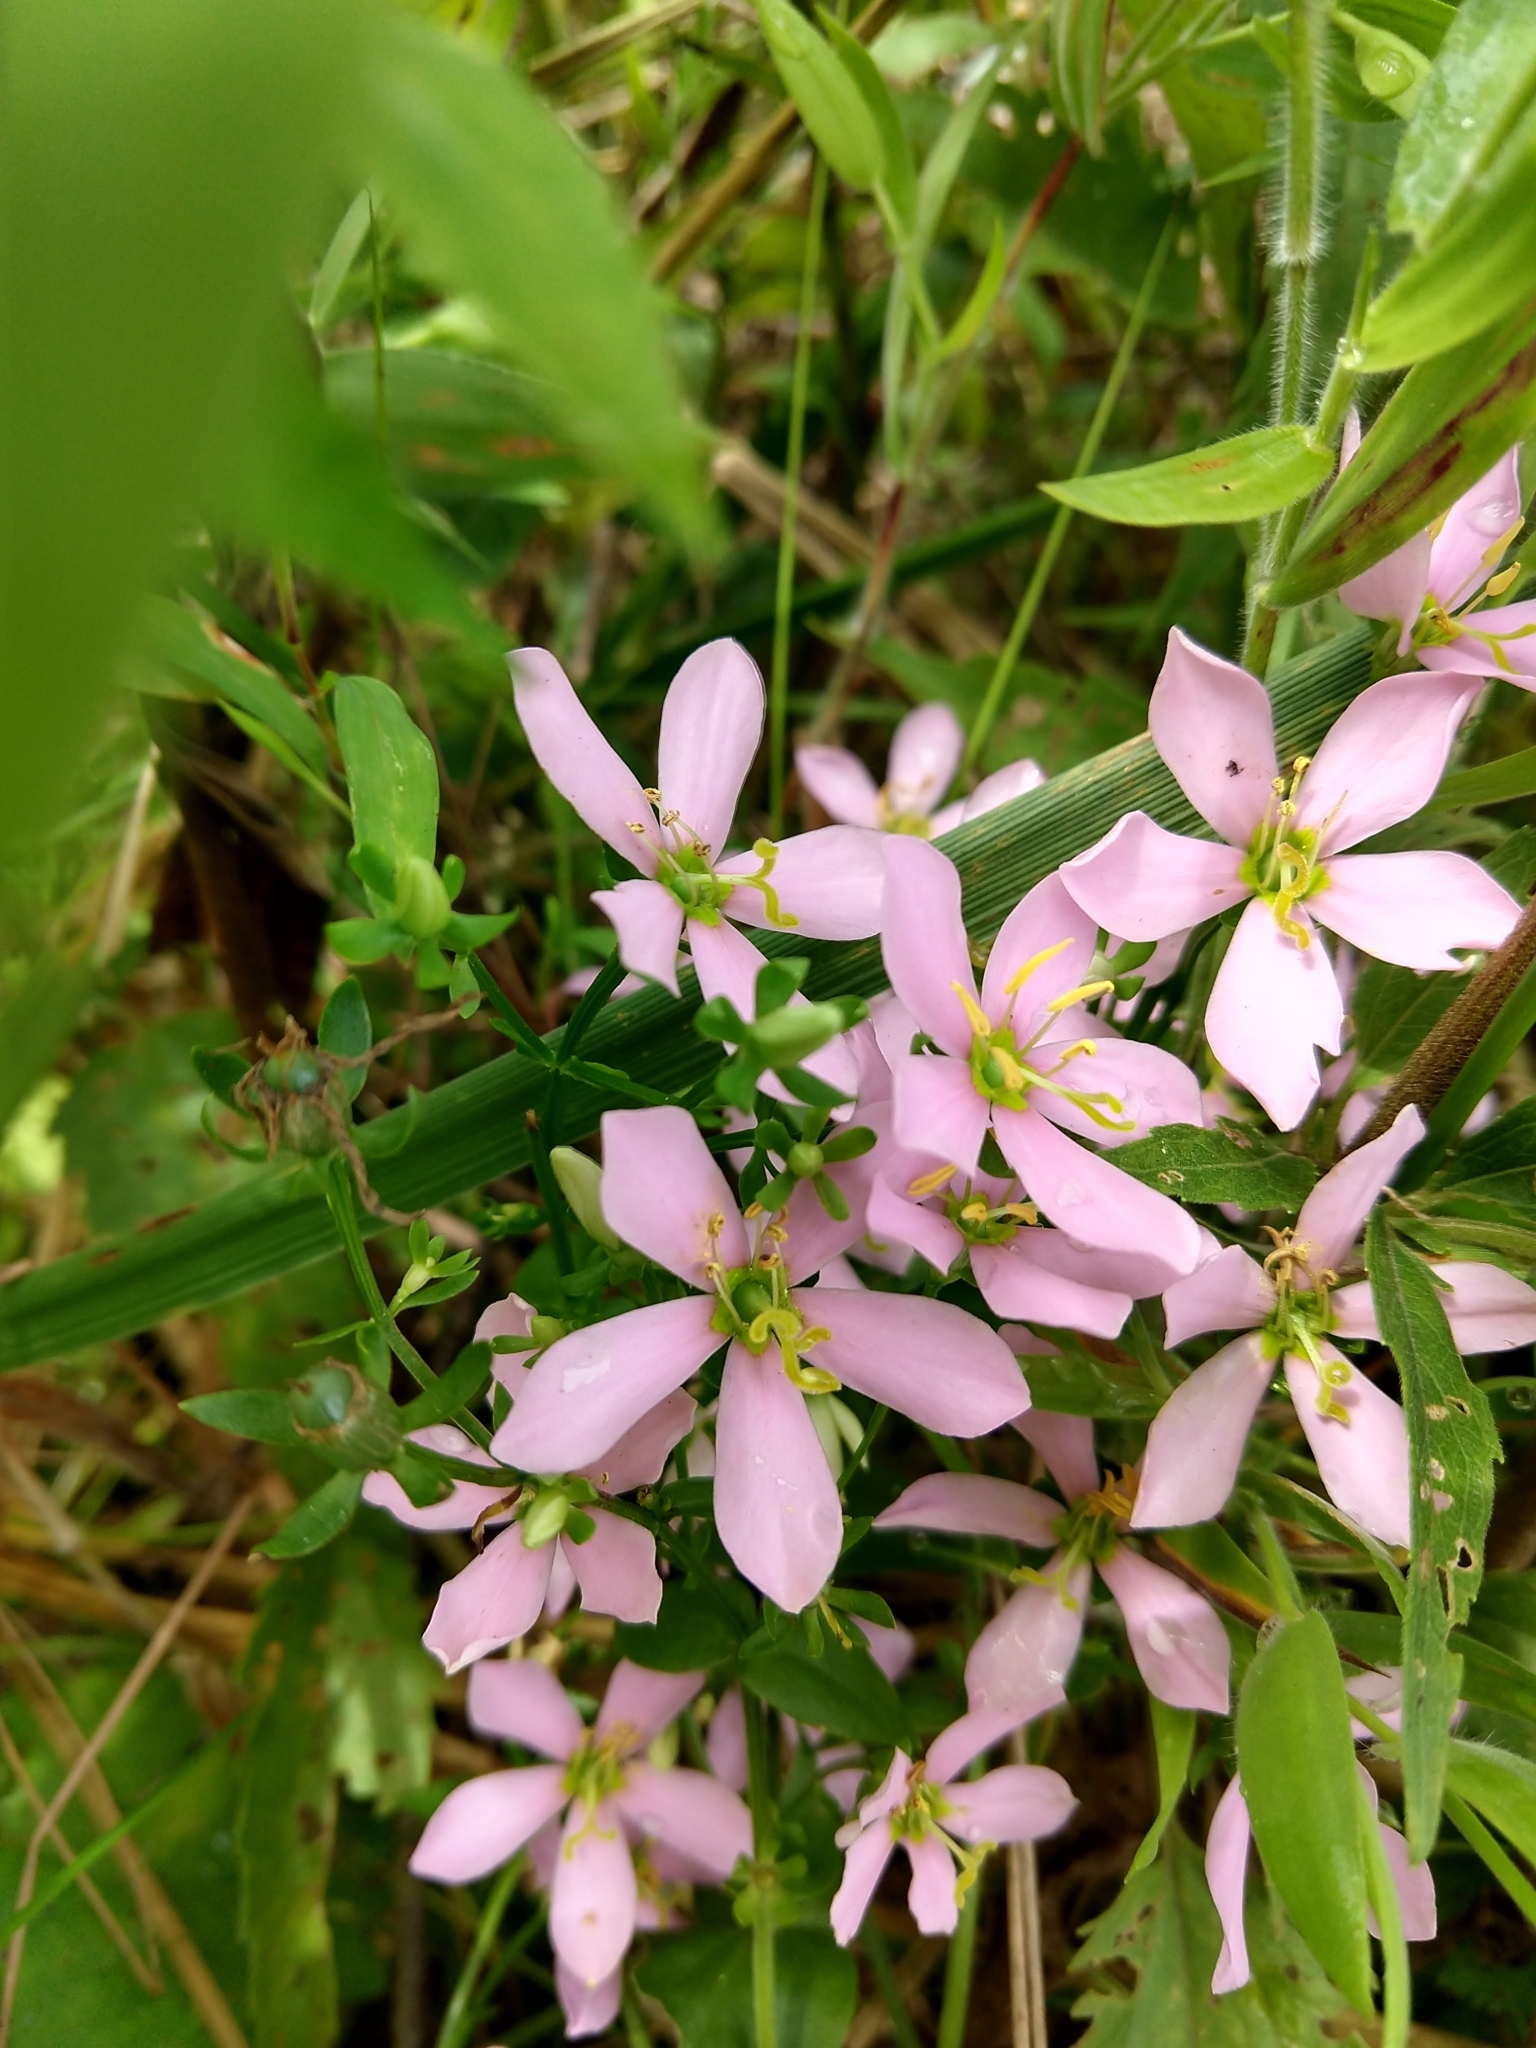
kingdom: Plantae
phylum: Tracheophyta
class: Magnoliopsida
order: Gentianales
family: Gentianaceae
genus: Sabatia
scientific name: Sabatia angularis
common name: Rose-pink
